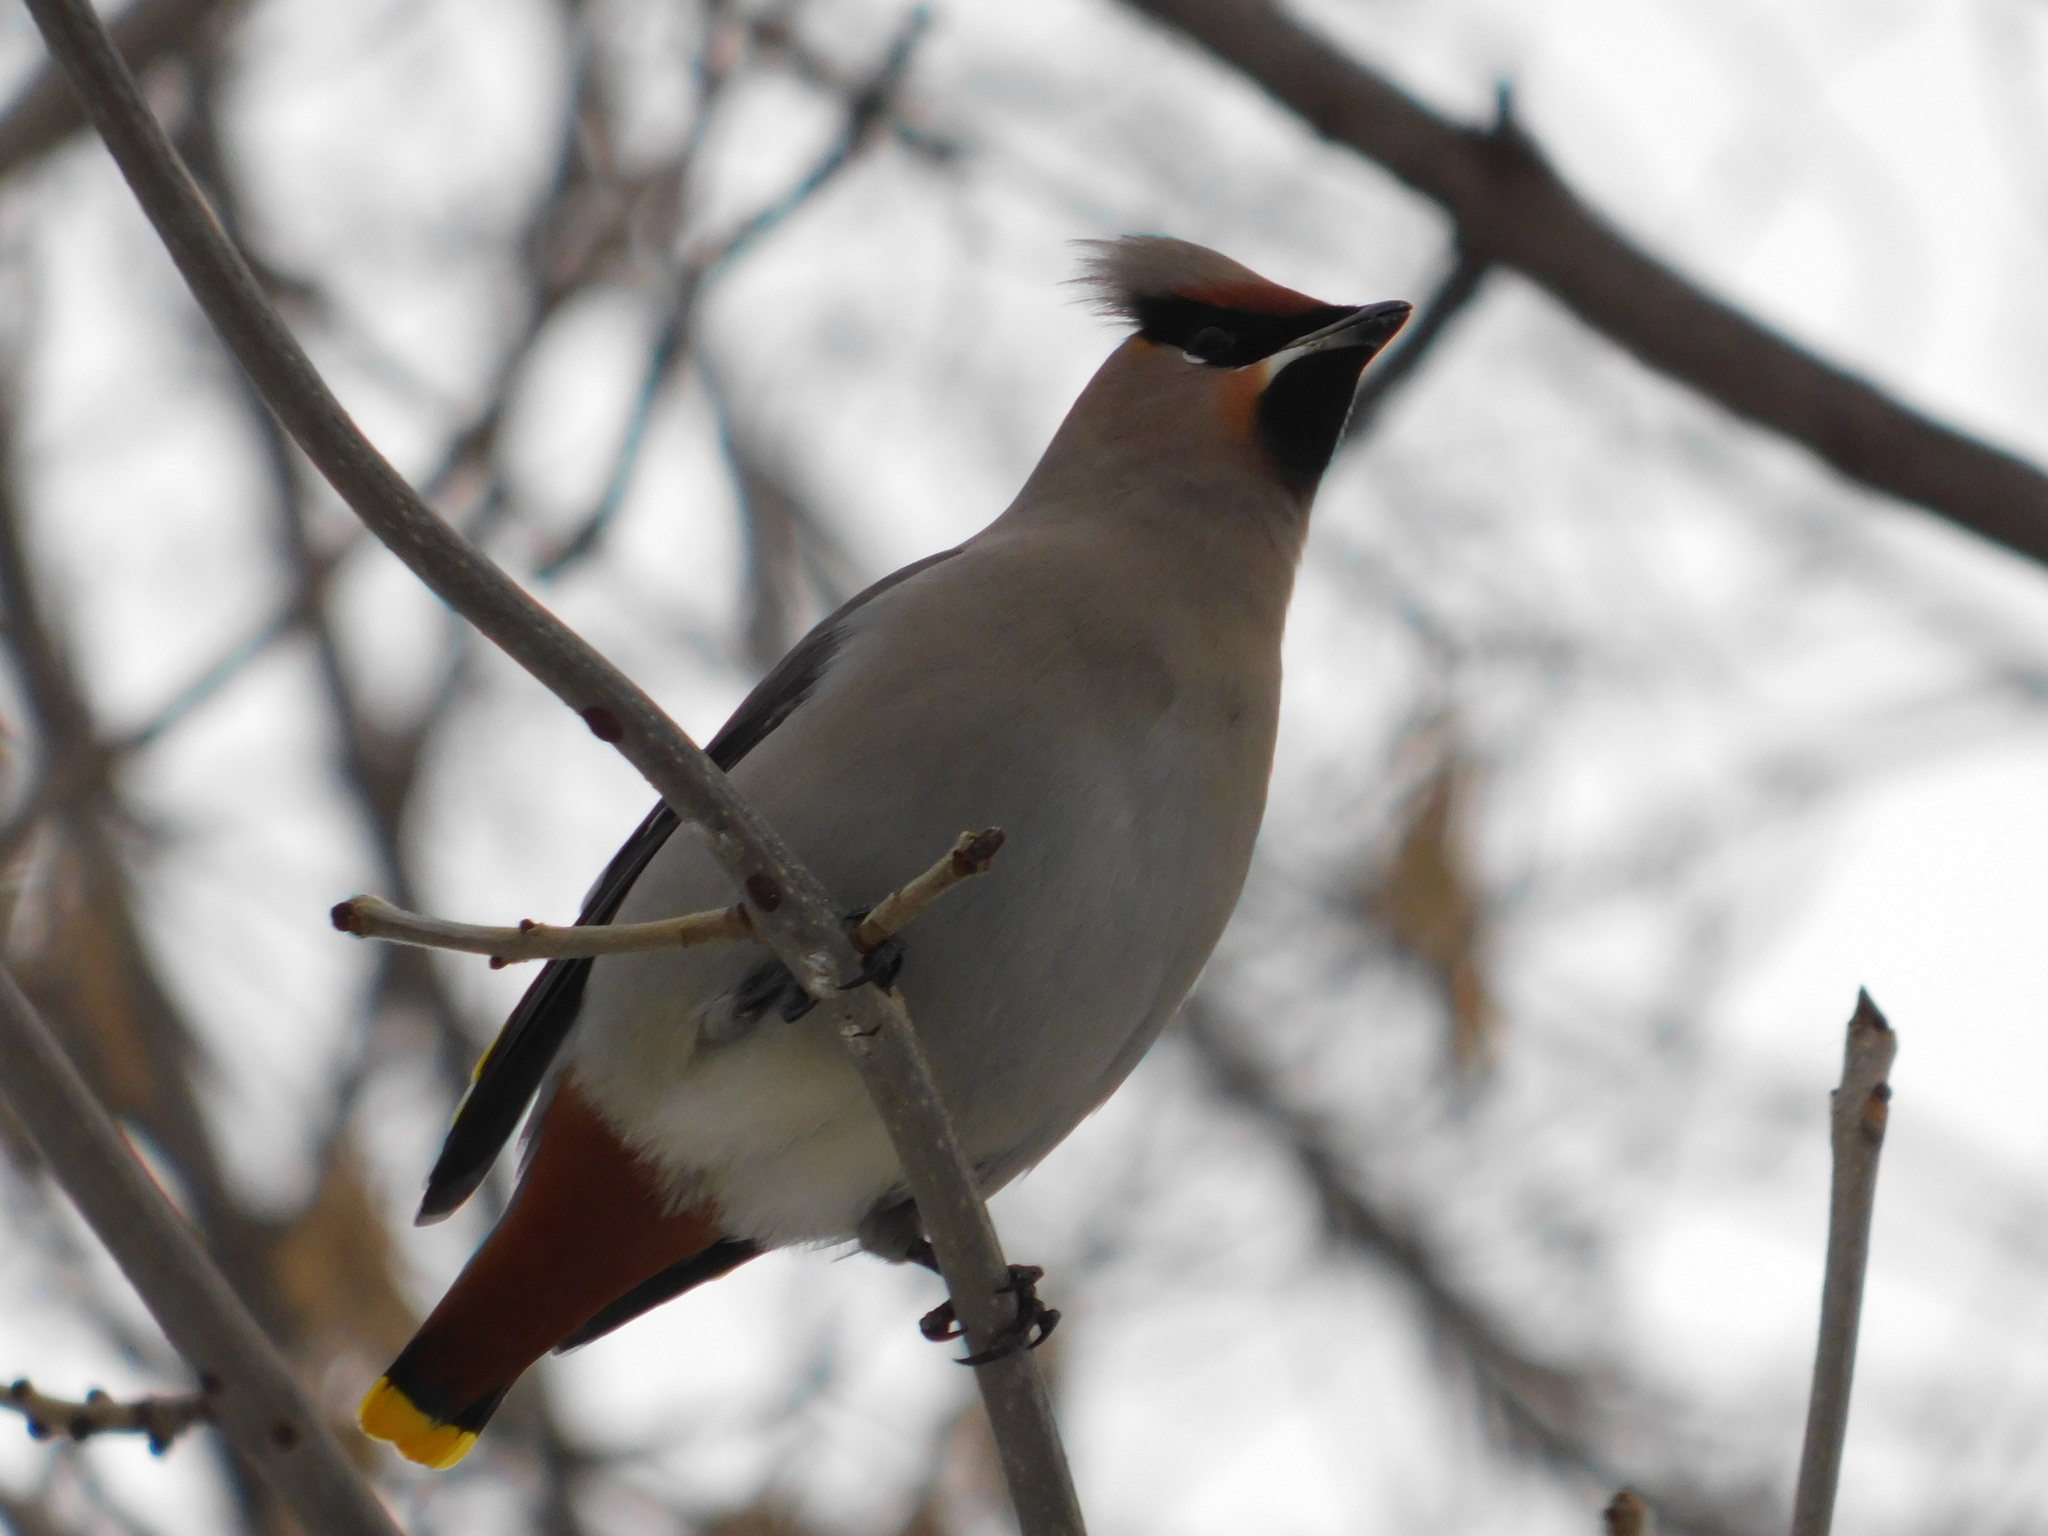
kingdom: Animalia
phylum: Chordata
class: Aves
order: Passeriformes
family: Bombycillidae
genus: Bombycilla
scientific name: Bombycilla garrulus
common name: Bohemian waxwing
